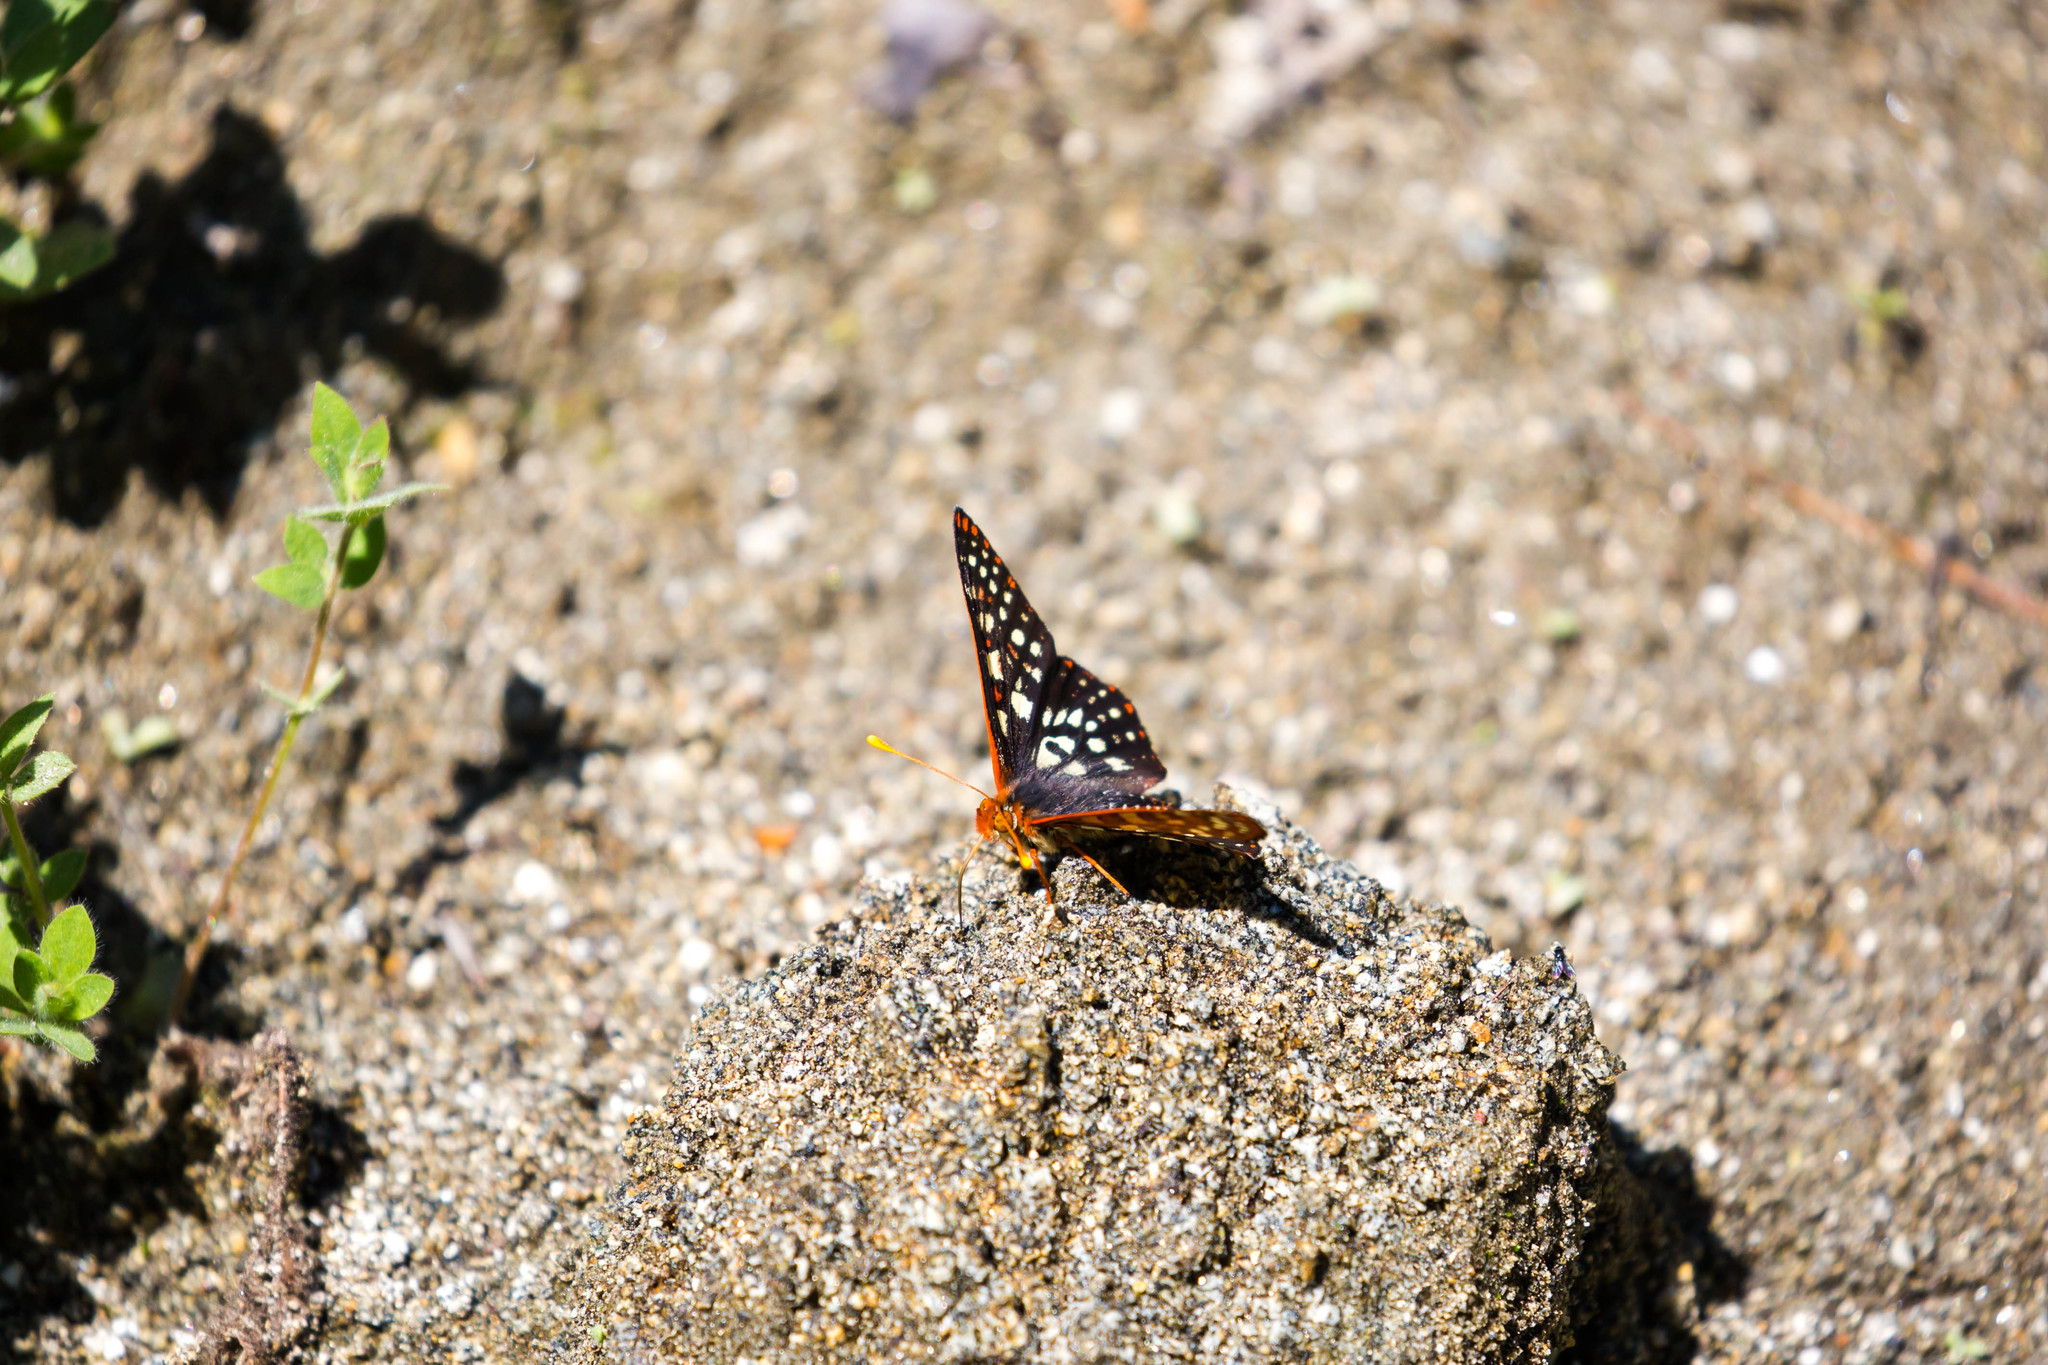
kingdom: Animalia
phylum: Arthropoda
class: Insecta
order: Lepidoptera
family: Nymphalidae
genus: Occidryas
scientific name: Occidryas chalcedona
